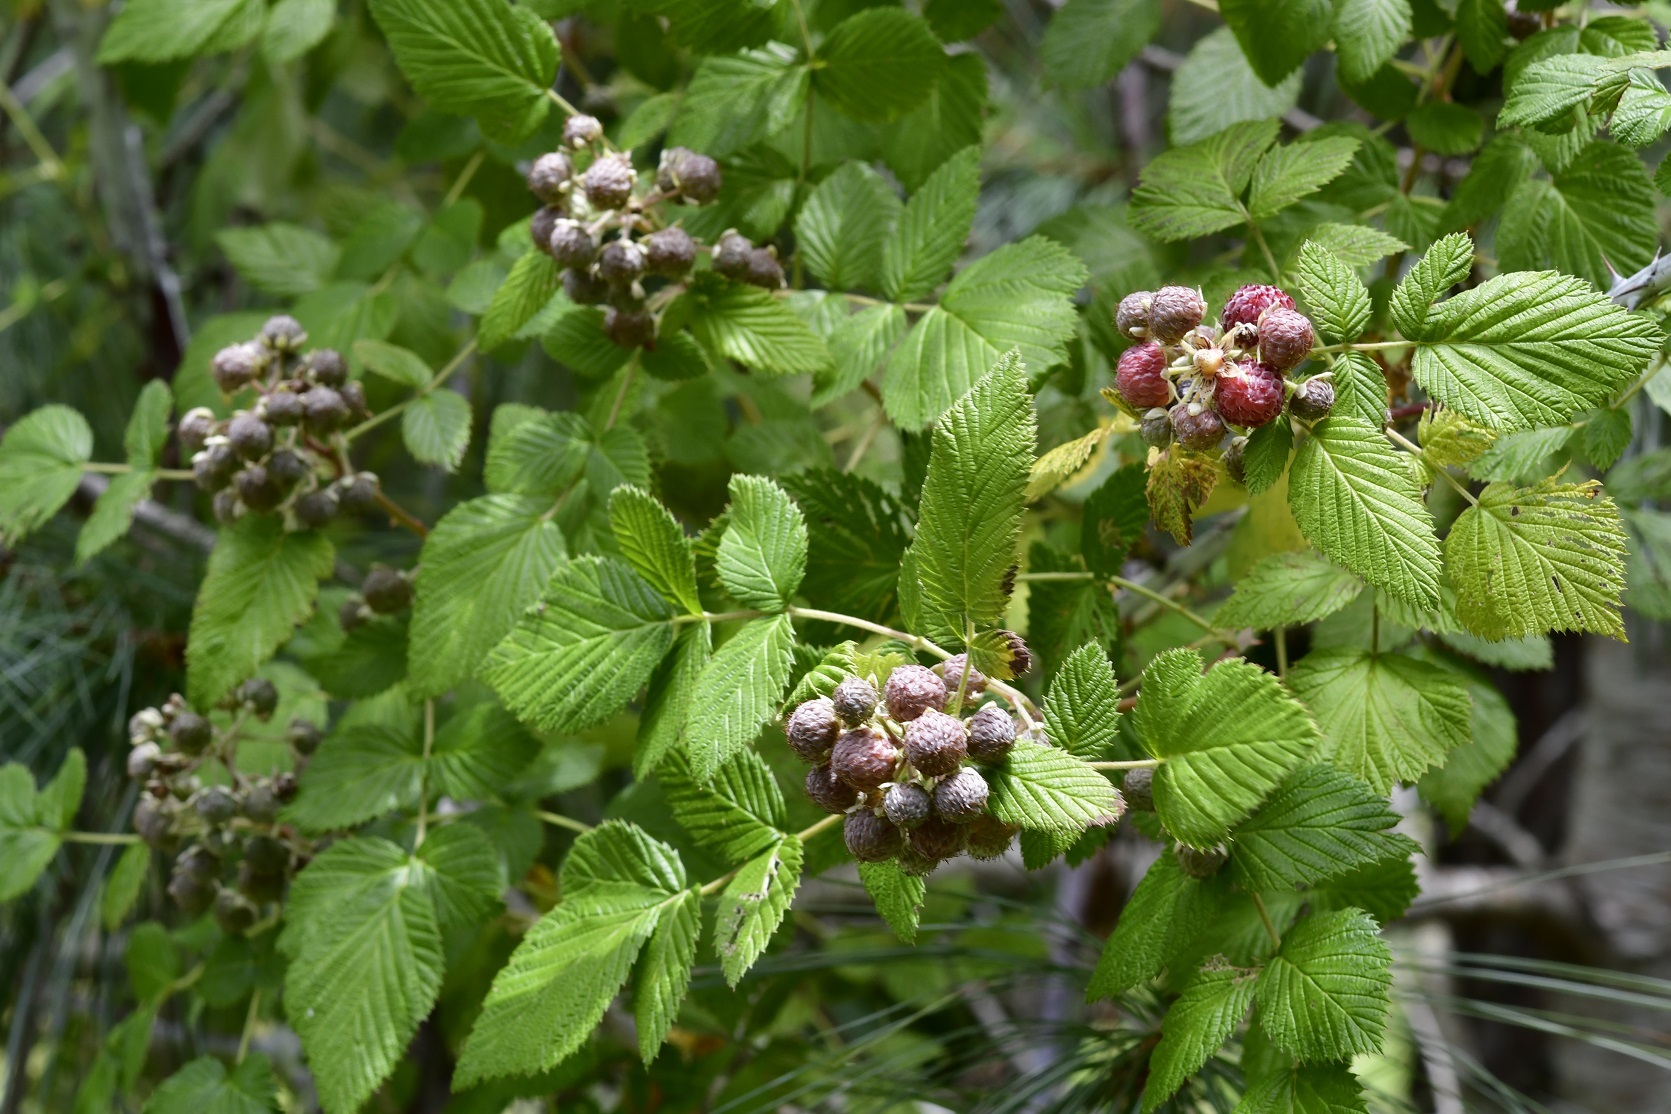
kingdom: Plantae
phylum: Tracheophyta
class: Magnoliopsida
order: Rosales
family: Rosaceae
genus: Rubus
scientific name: Rubus niveus
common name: Snowpeaks raspberry
